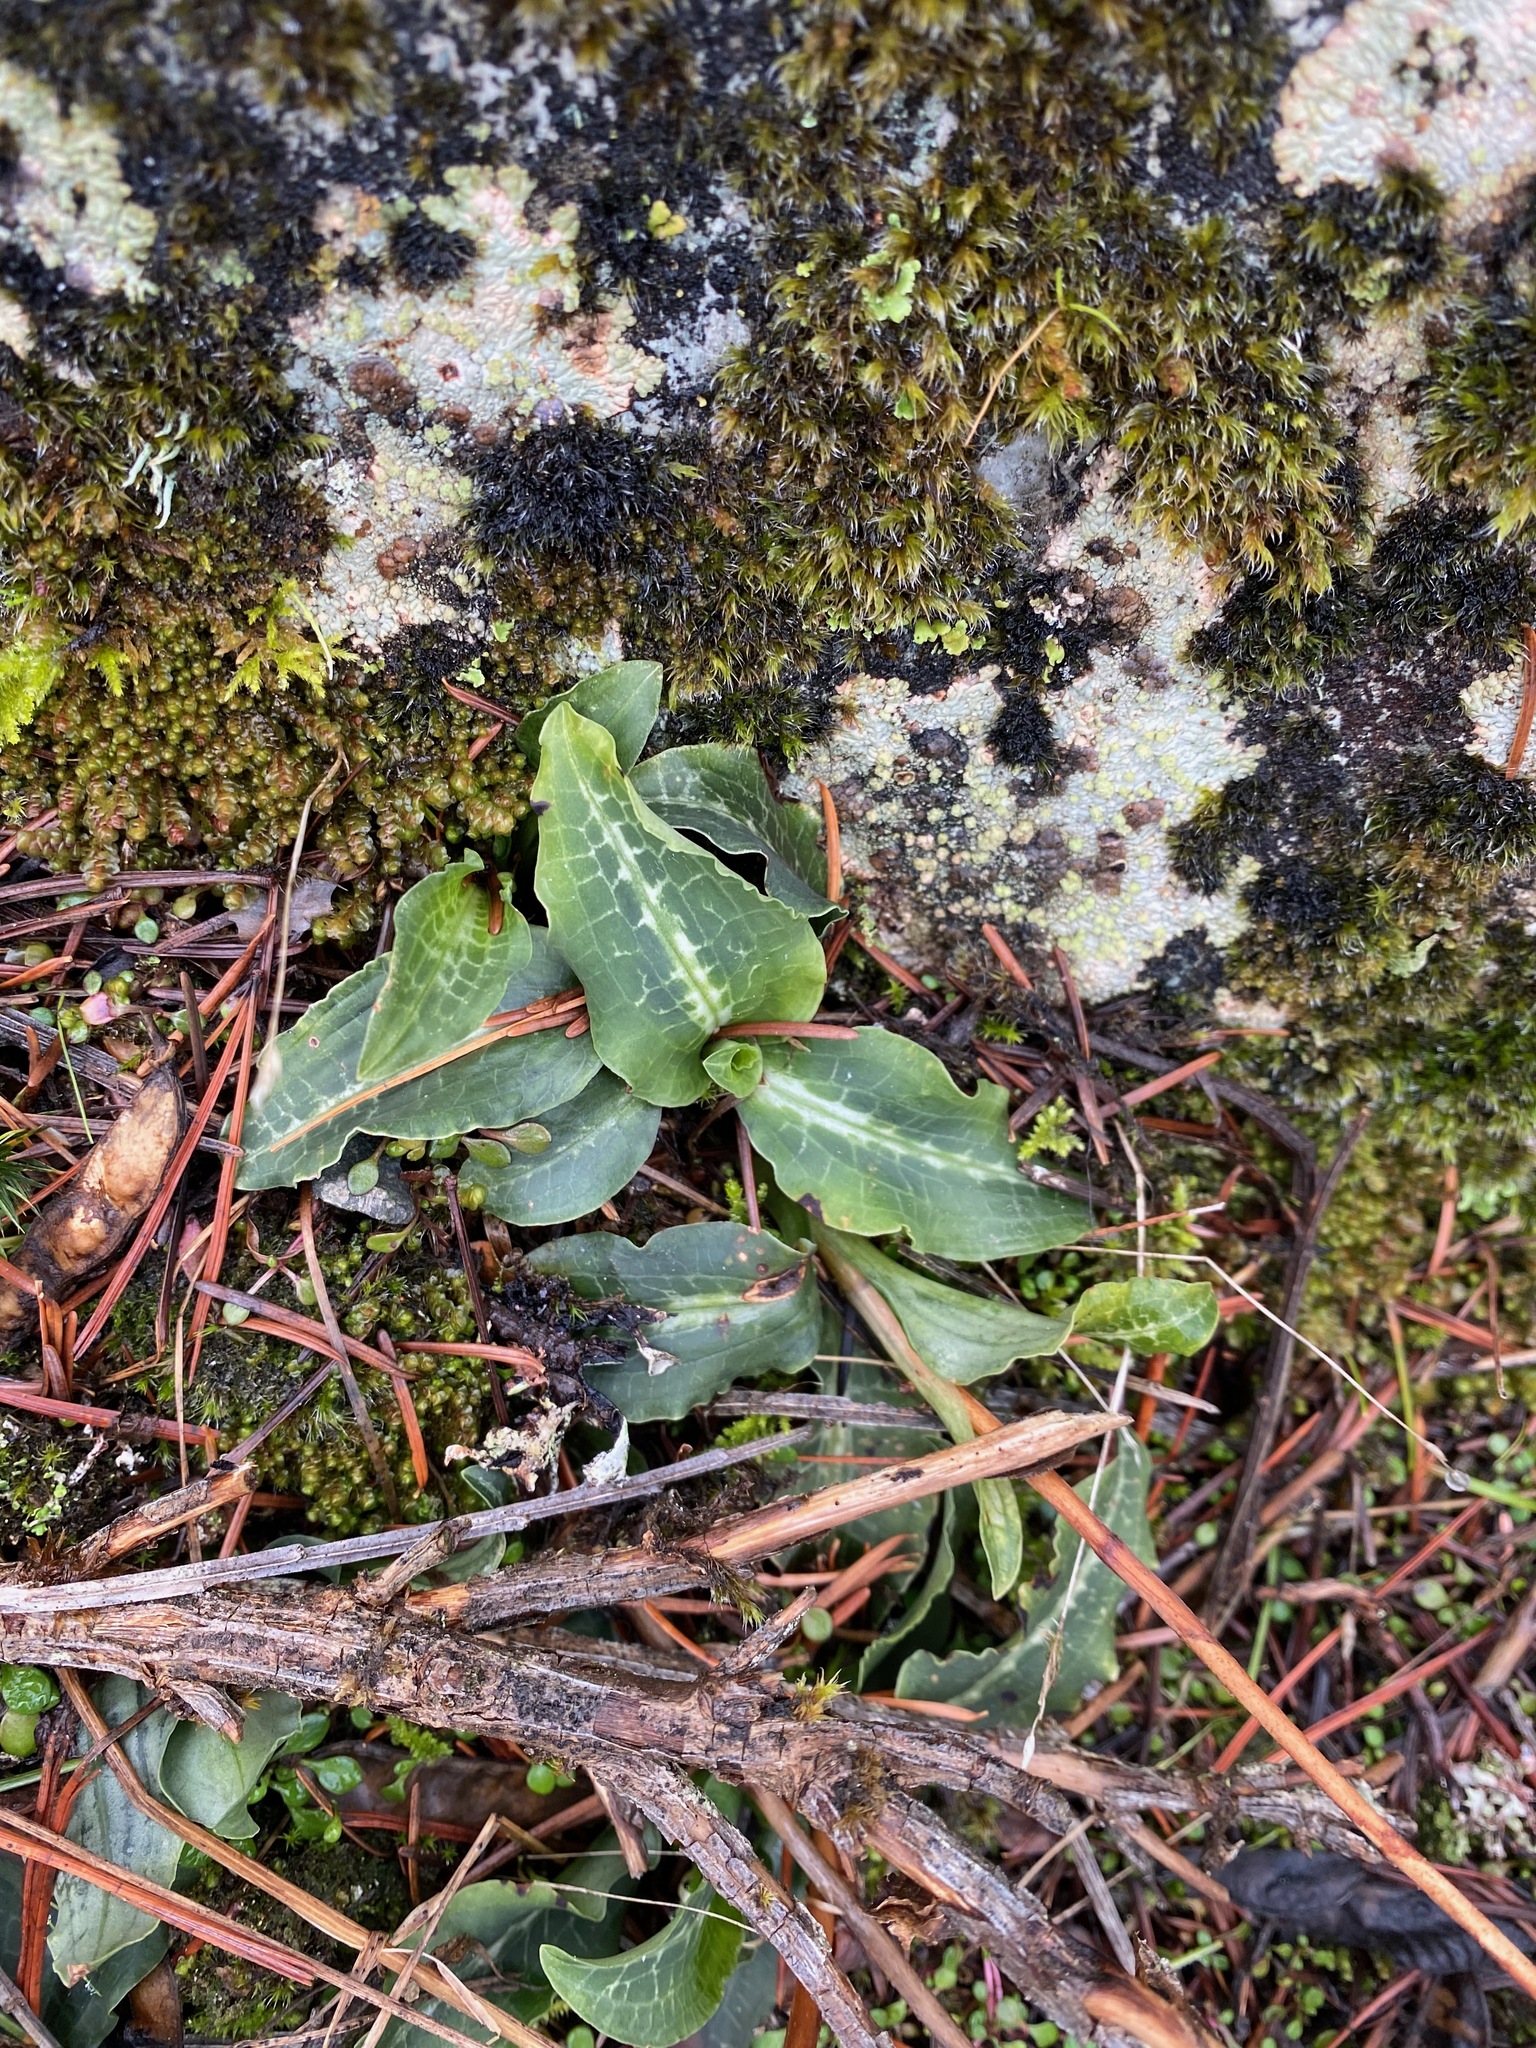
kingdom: Plantae
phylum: Tracheophyta
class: Liliopsida
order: Asparagales
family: Orchidaceae
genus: Goodyera
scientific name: Goodyera oblongifolia
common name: Giant rattlesnake-plantain
